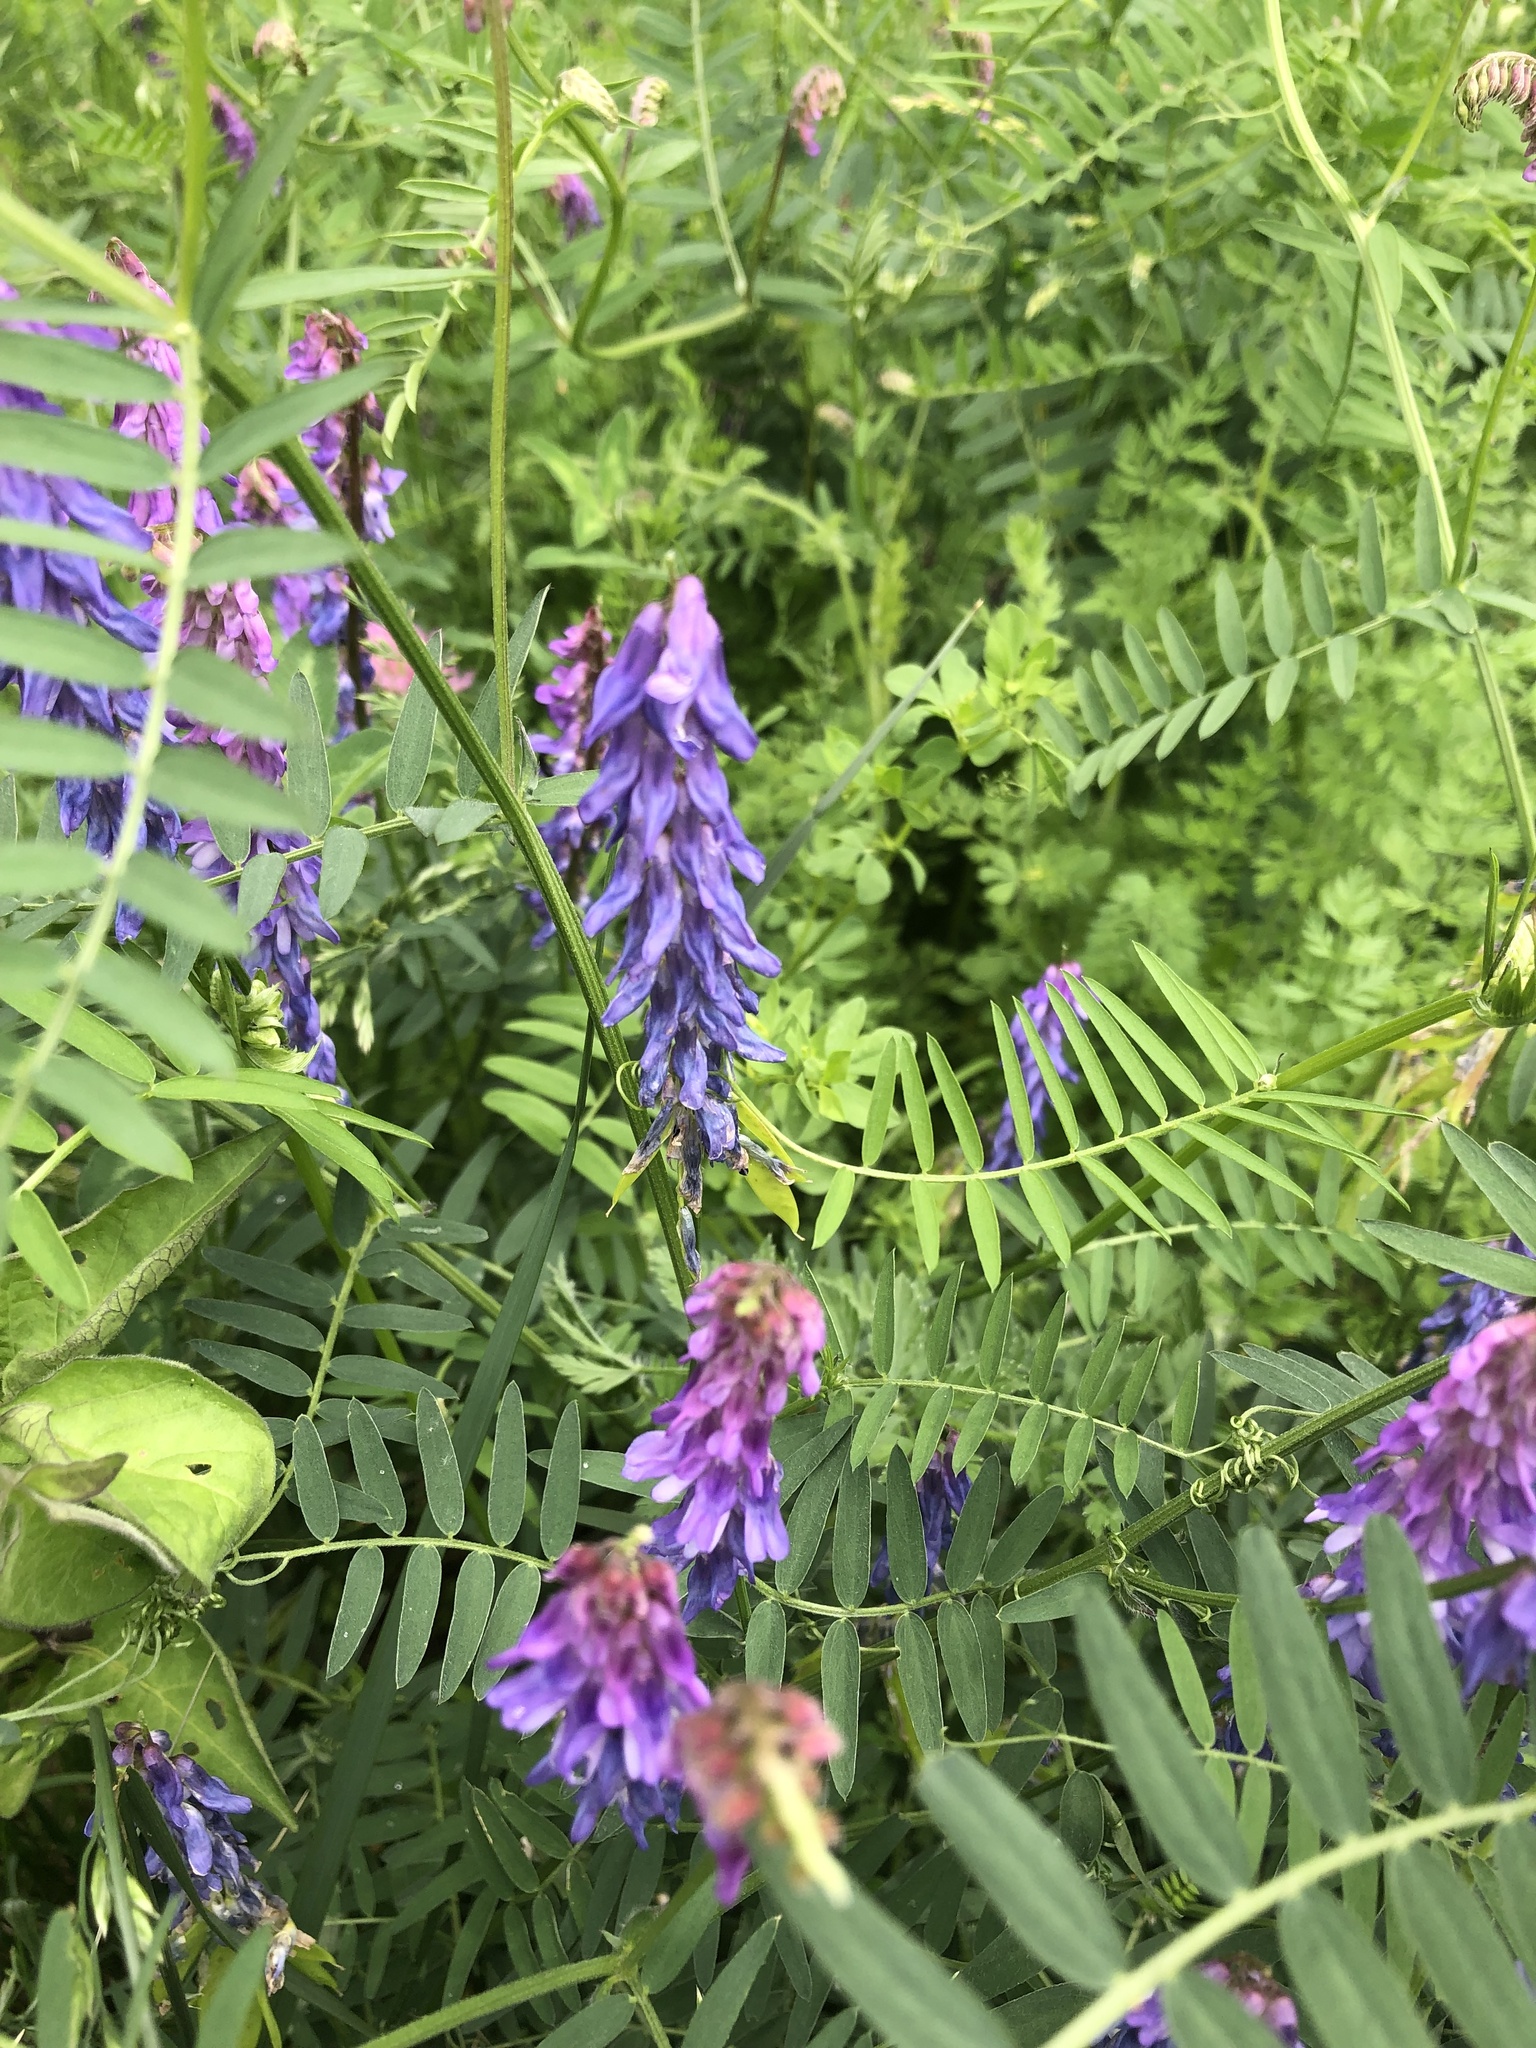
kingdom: Plantae
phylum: Tracheophyta
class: Magnoliopsida
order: Fabales
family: Fabaceae
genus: Vicia
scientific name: Vicia cracca
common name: Bird vetch
